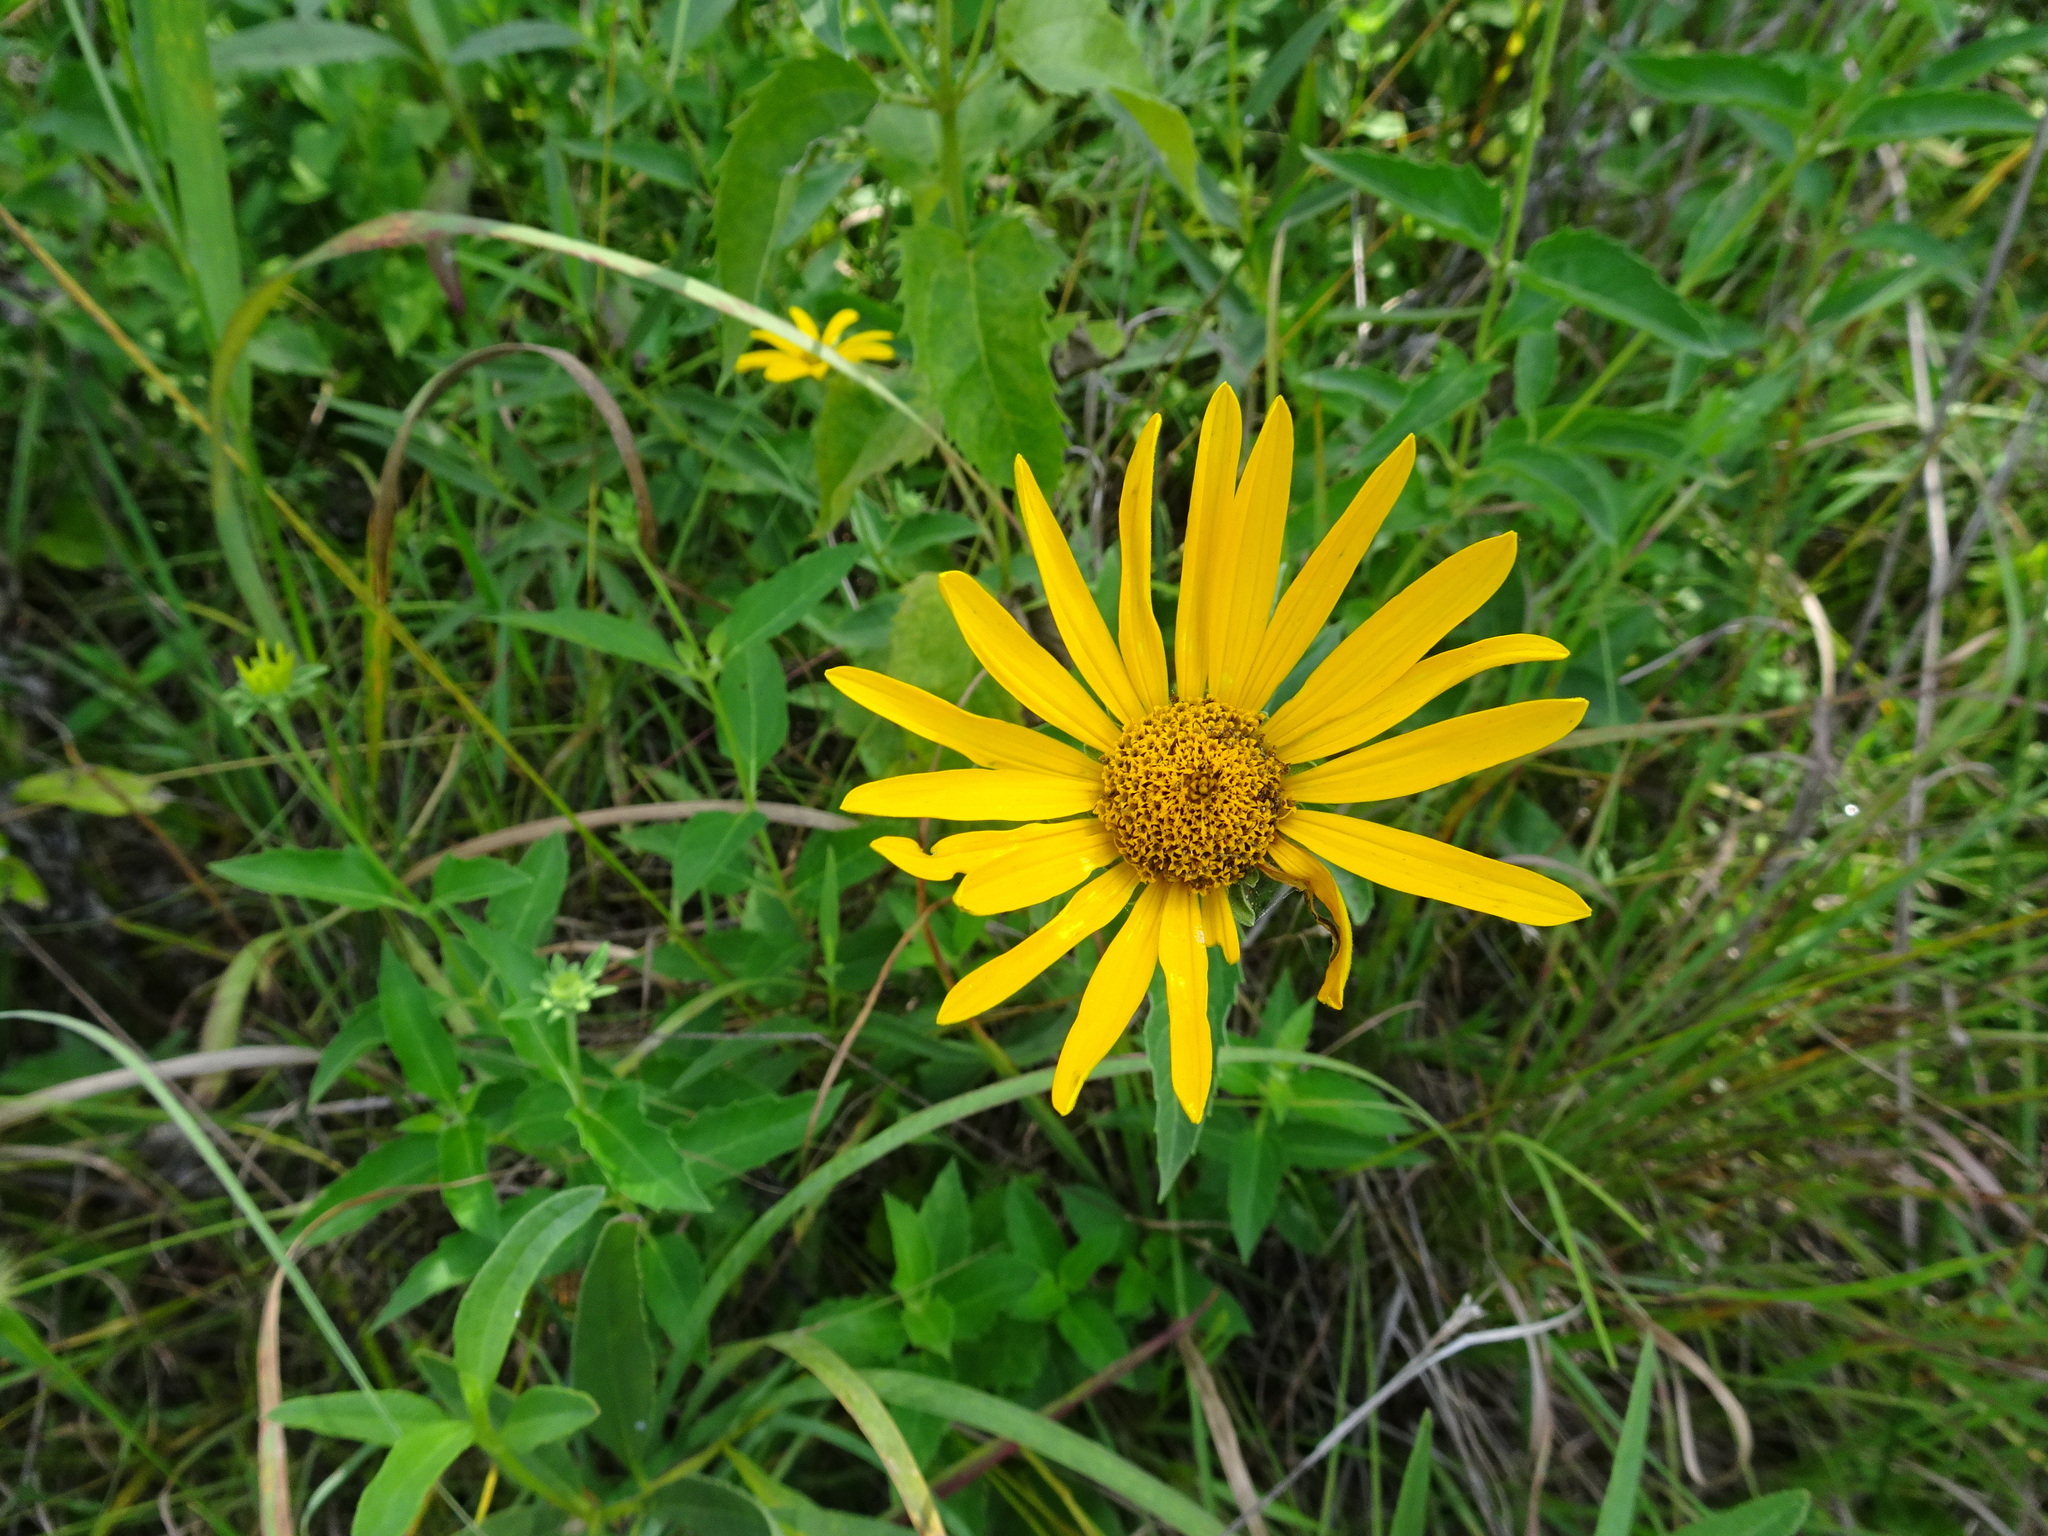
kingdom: Plantae
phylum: Tracheophyta
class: Magnoliopsida
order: Asterales
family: Asteraceae
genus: Heliopsis
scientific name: Heliopsis helianthoides
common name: False sunflower
